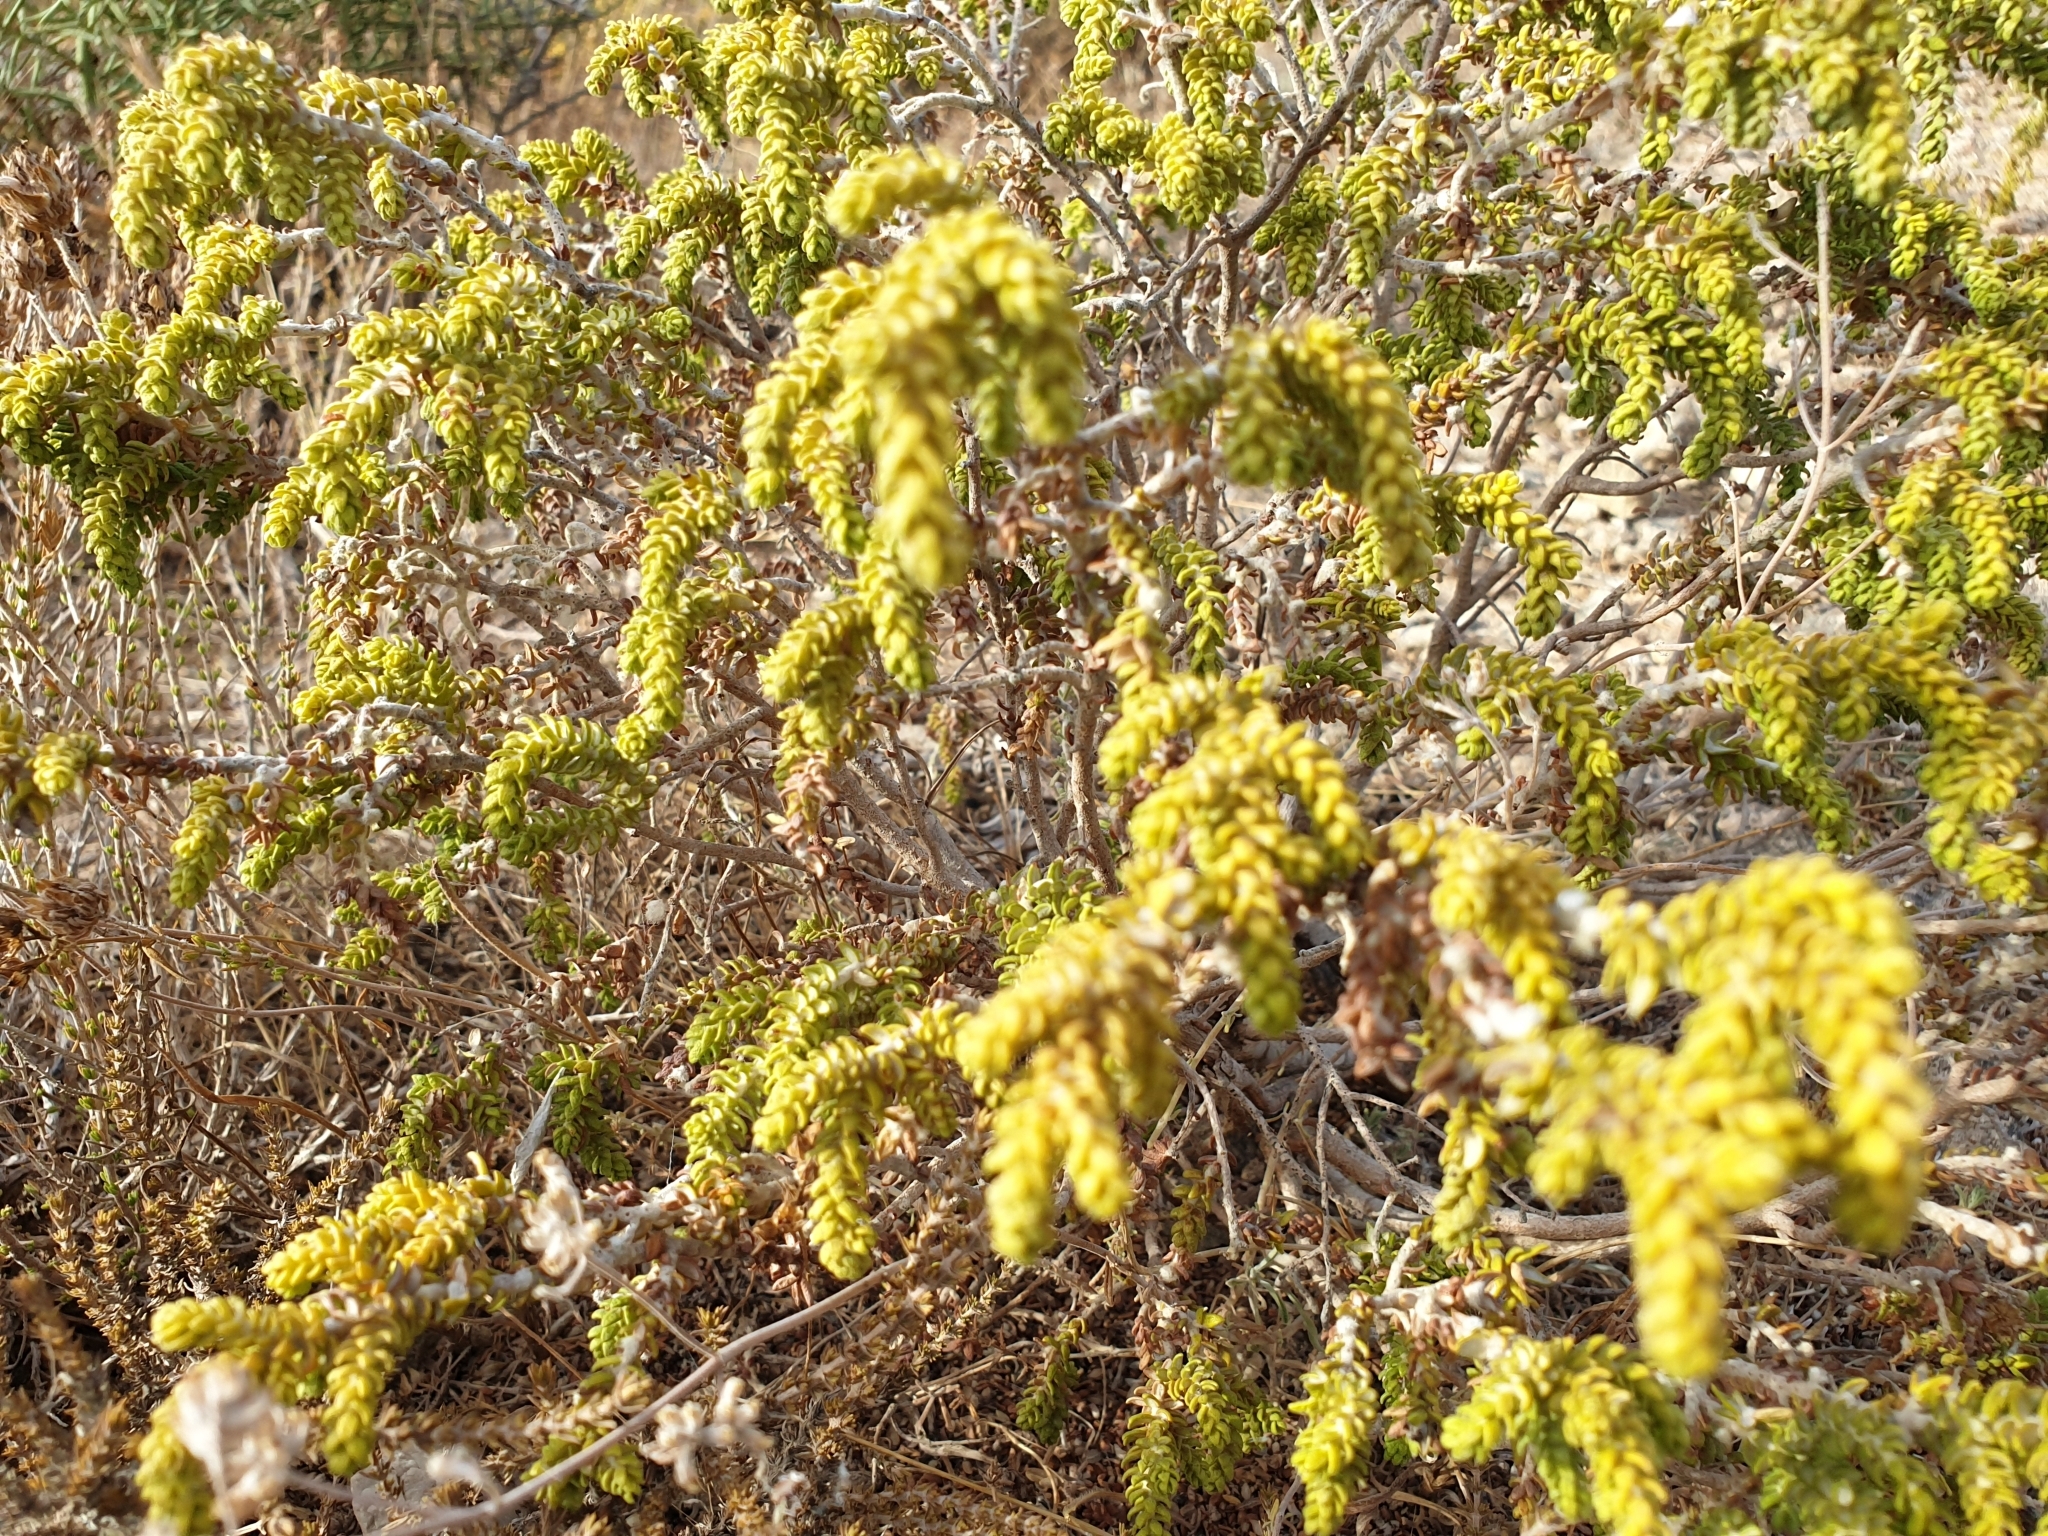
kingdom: Plantae
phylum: Tracheophyta
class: Magnoliopsida
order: Malvales
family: Thymelaeaceae
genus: Thymelaea
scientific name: Thymelaea hirsuta
